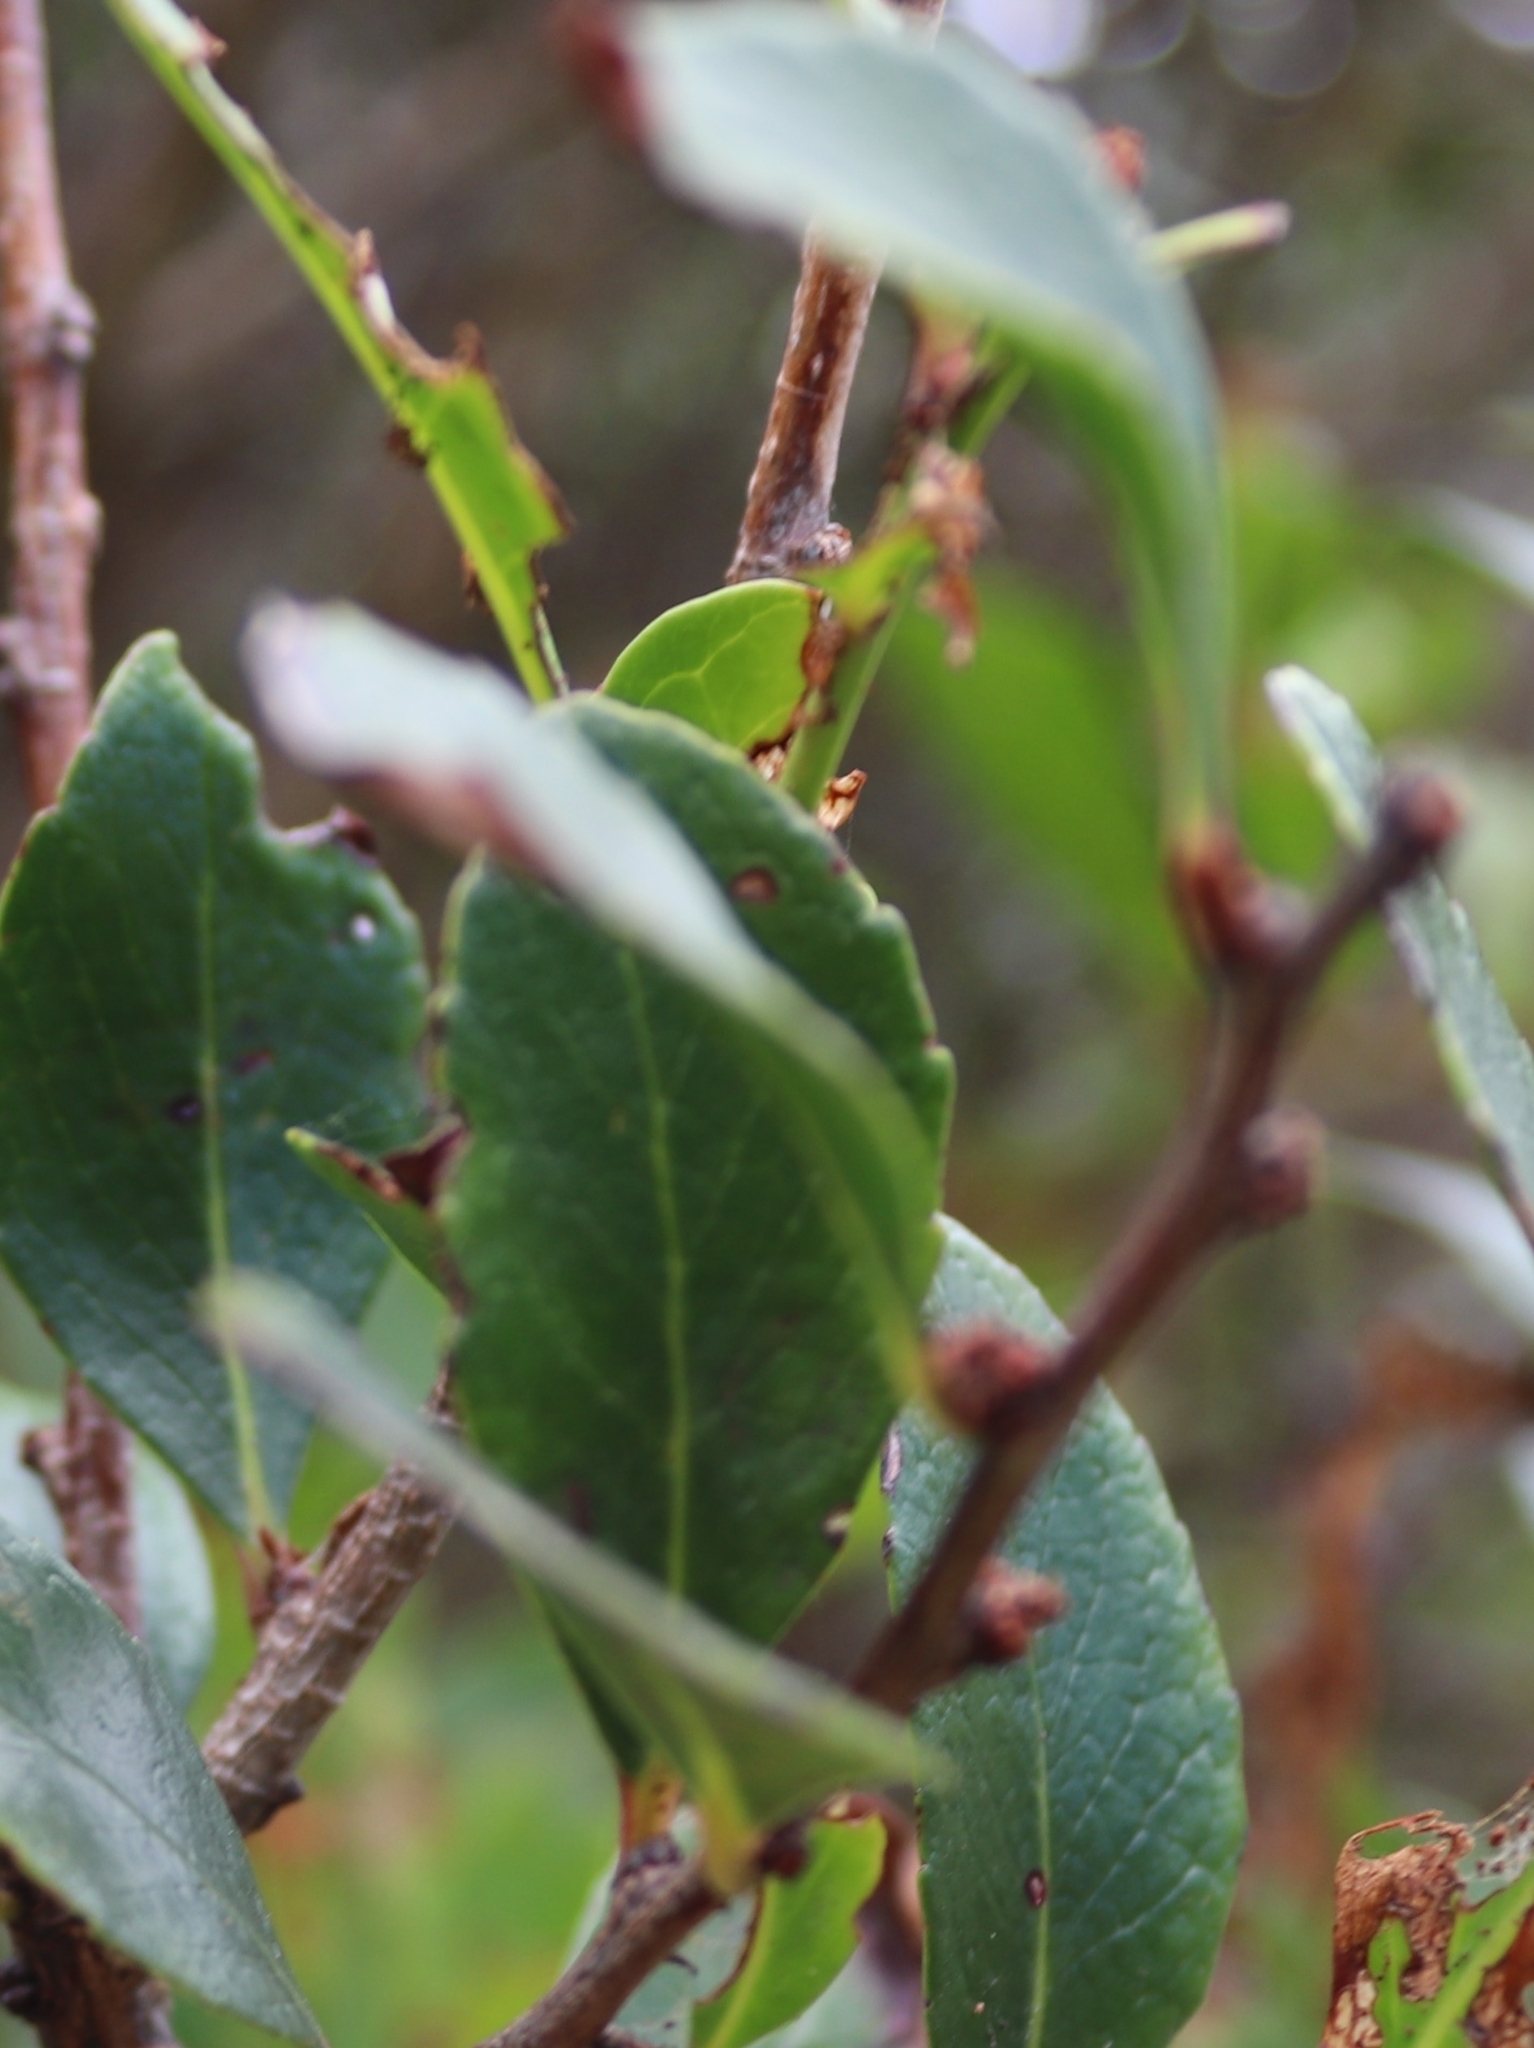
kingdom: Plantae
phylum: Tracheophyta
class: Magnoliopsida
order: Celastrales
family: Celastraceae
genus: Gymnosporia
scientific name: Gymnosporia dryandri
